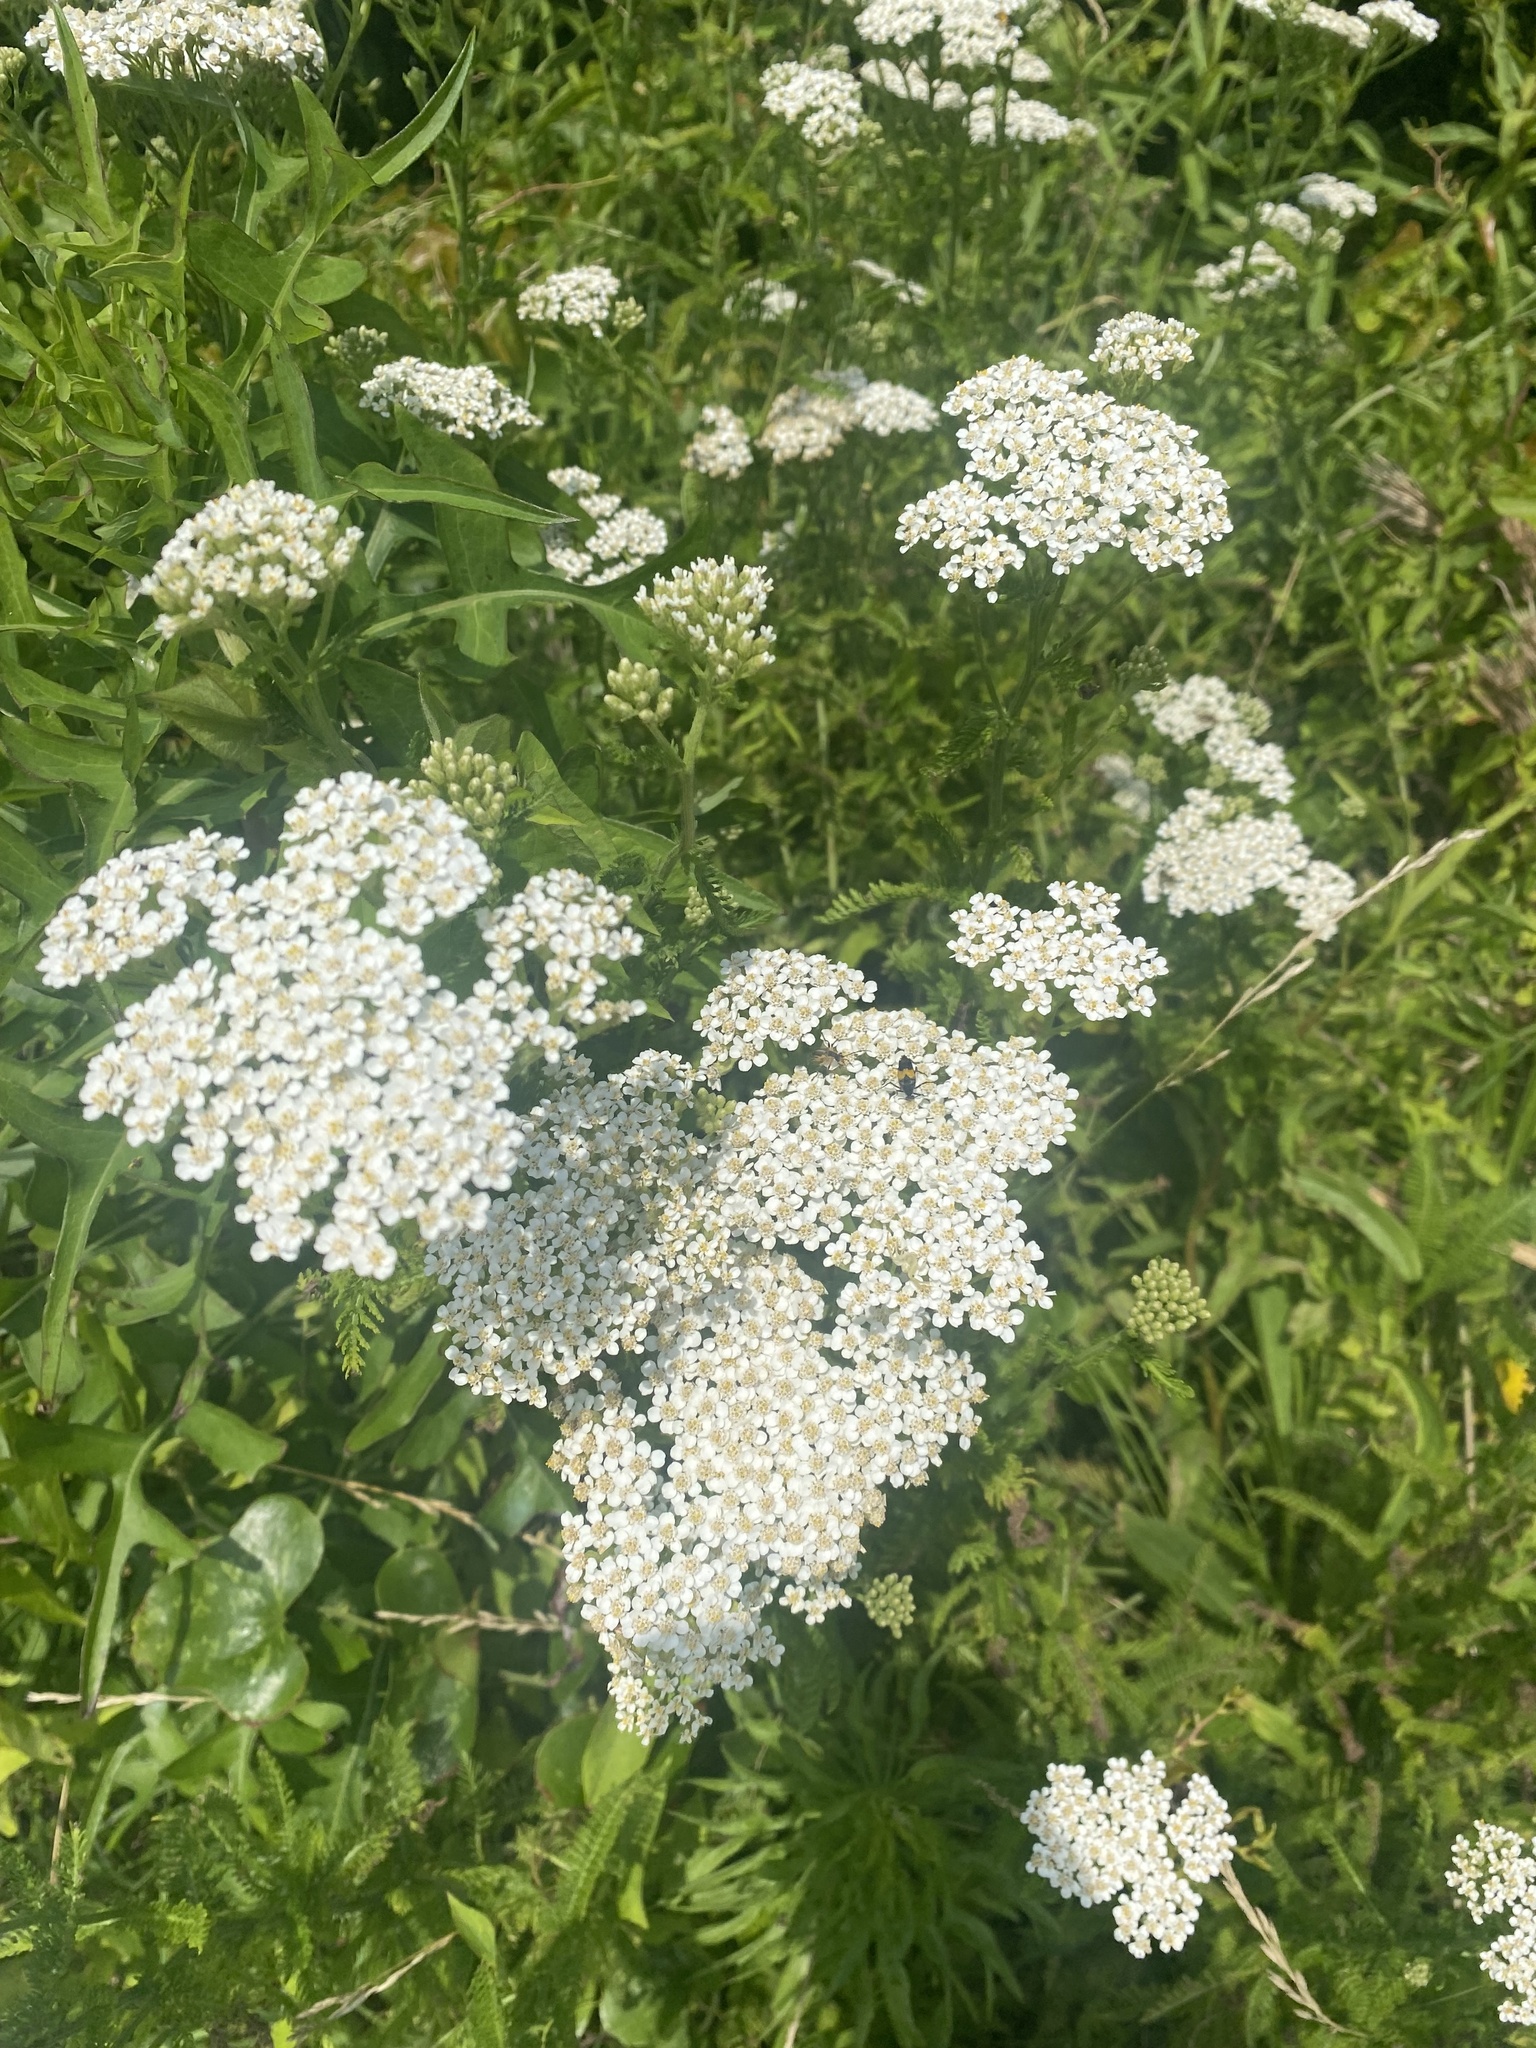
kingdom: Plantae
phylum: Tracheophyta
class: Magnoliopsida
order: Asterales
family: Asteraceae
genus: Achillea
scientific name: Achillea millefolium
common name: Yarrow
